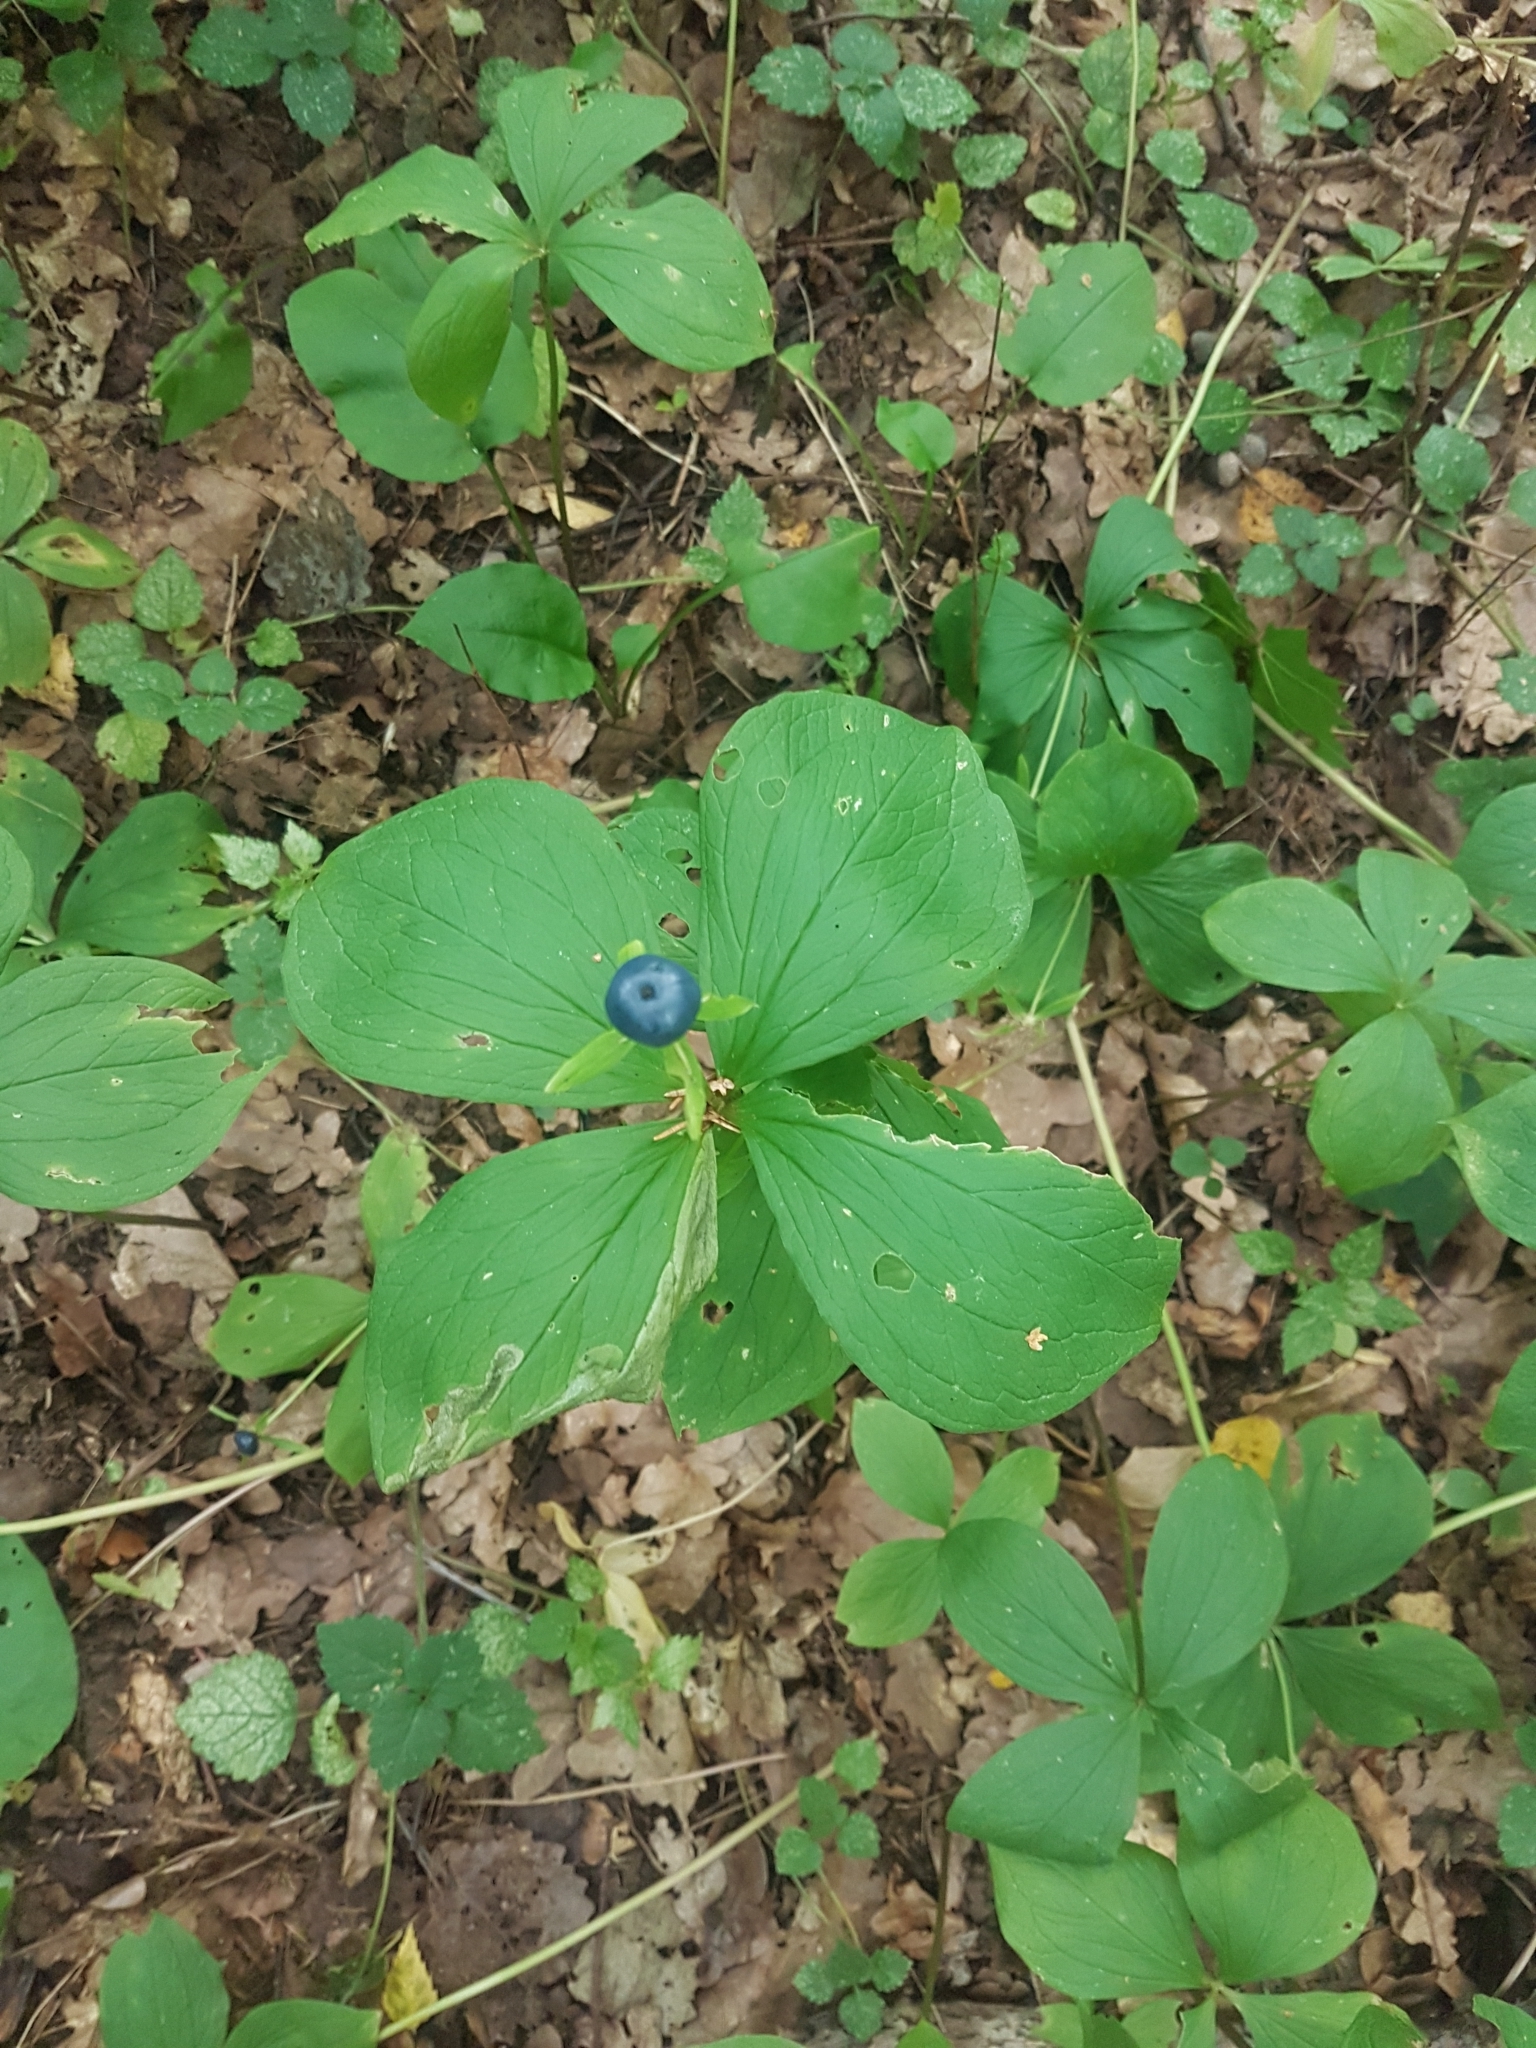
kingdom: Plantae
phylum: Tracheophyta
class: Liliopsida
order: Liliales
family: Melanthiaceae
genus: Paris
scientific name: Paris quadrifolia
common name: Herb-paris
